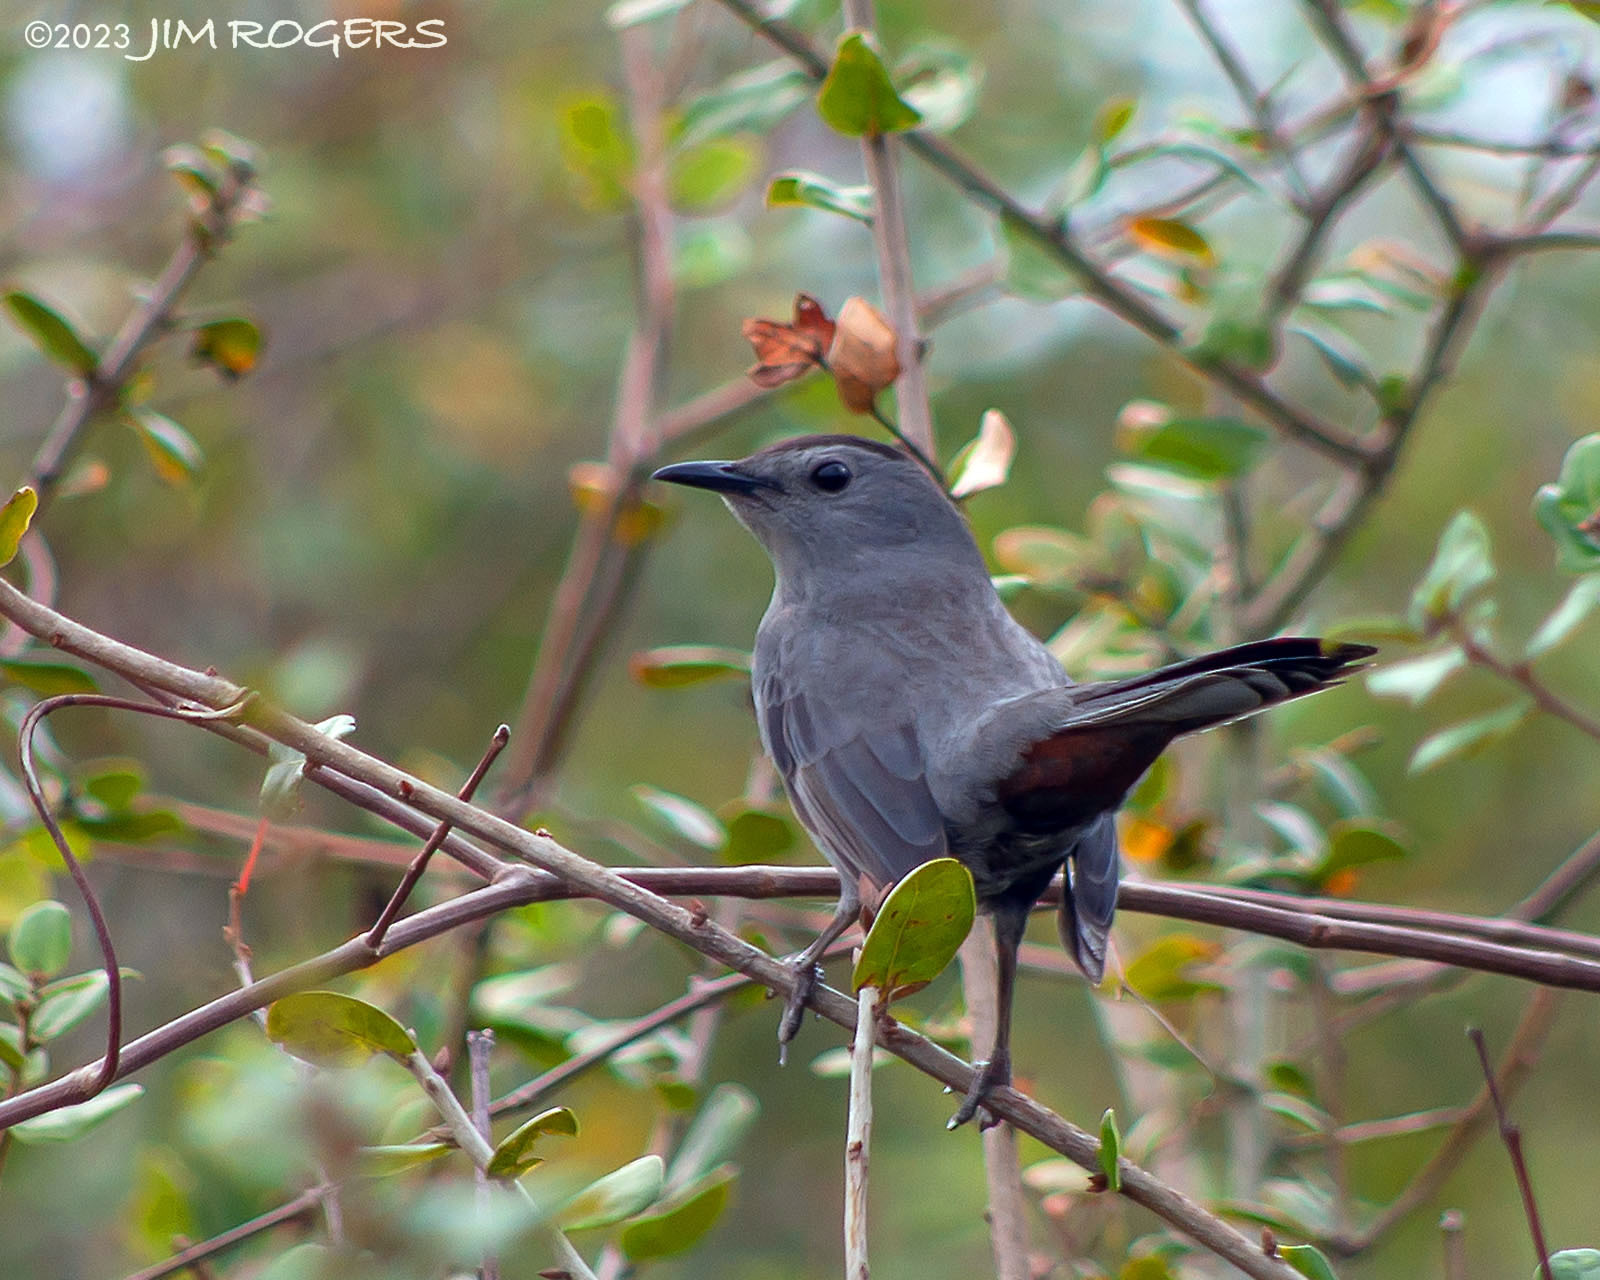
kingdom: Animalia
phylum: Chordata
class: Aves
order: Passeriformes
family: Mimidae
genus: Dumetella
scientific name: Dumetella carolinensis
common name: Gray catbird
